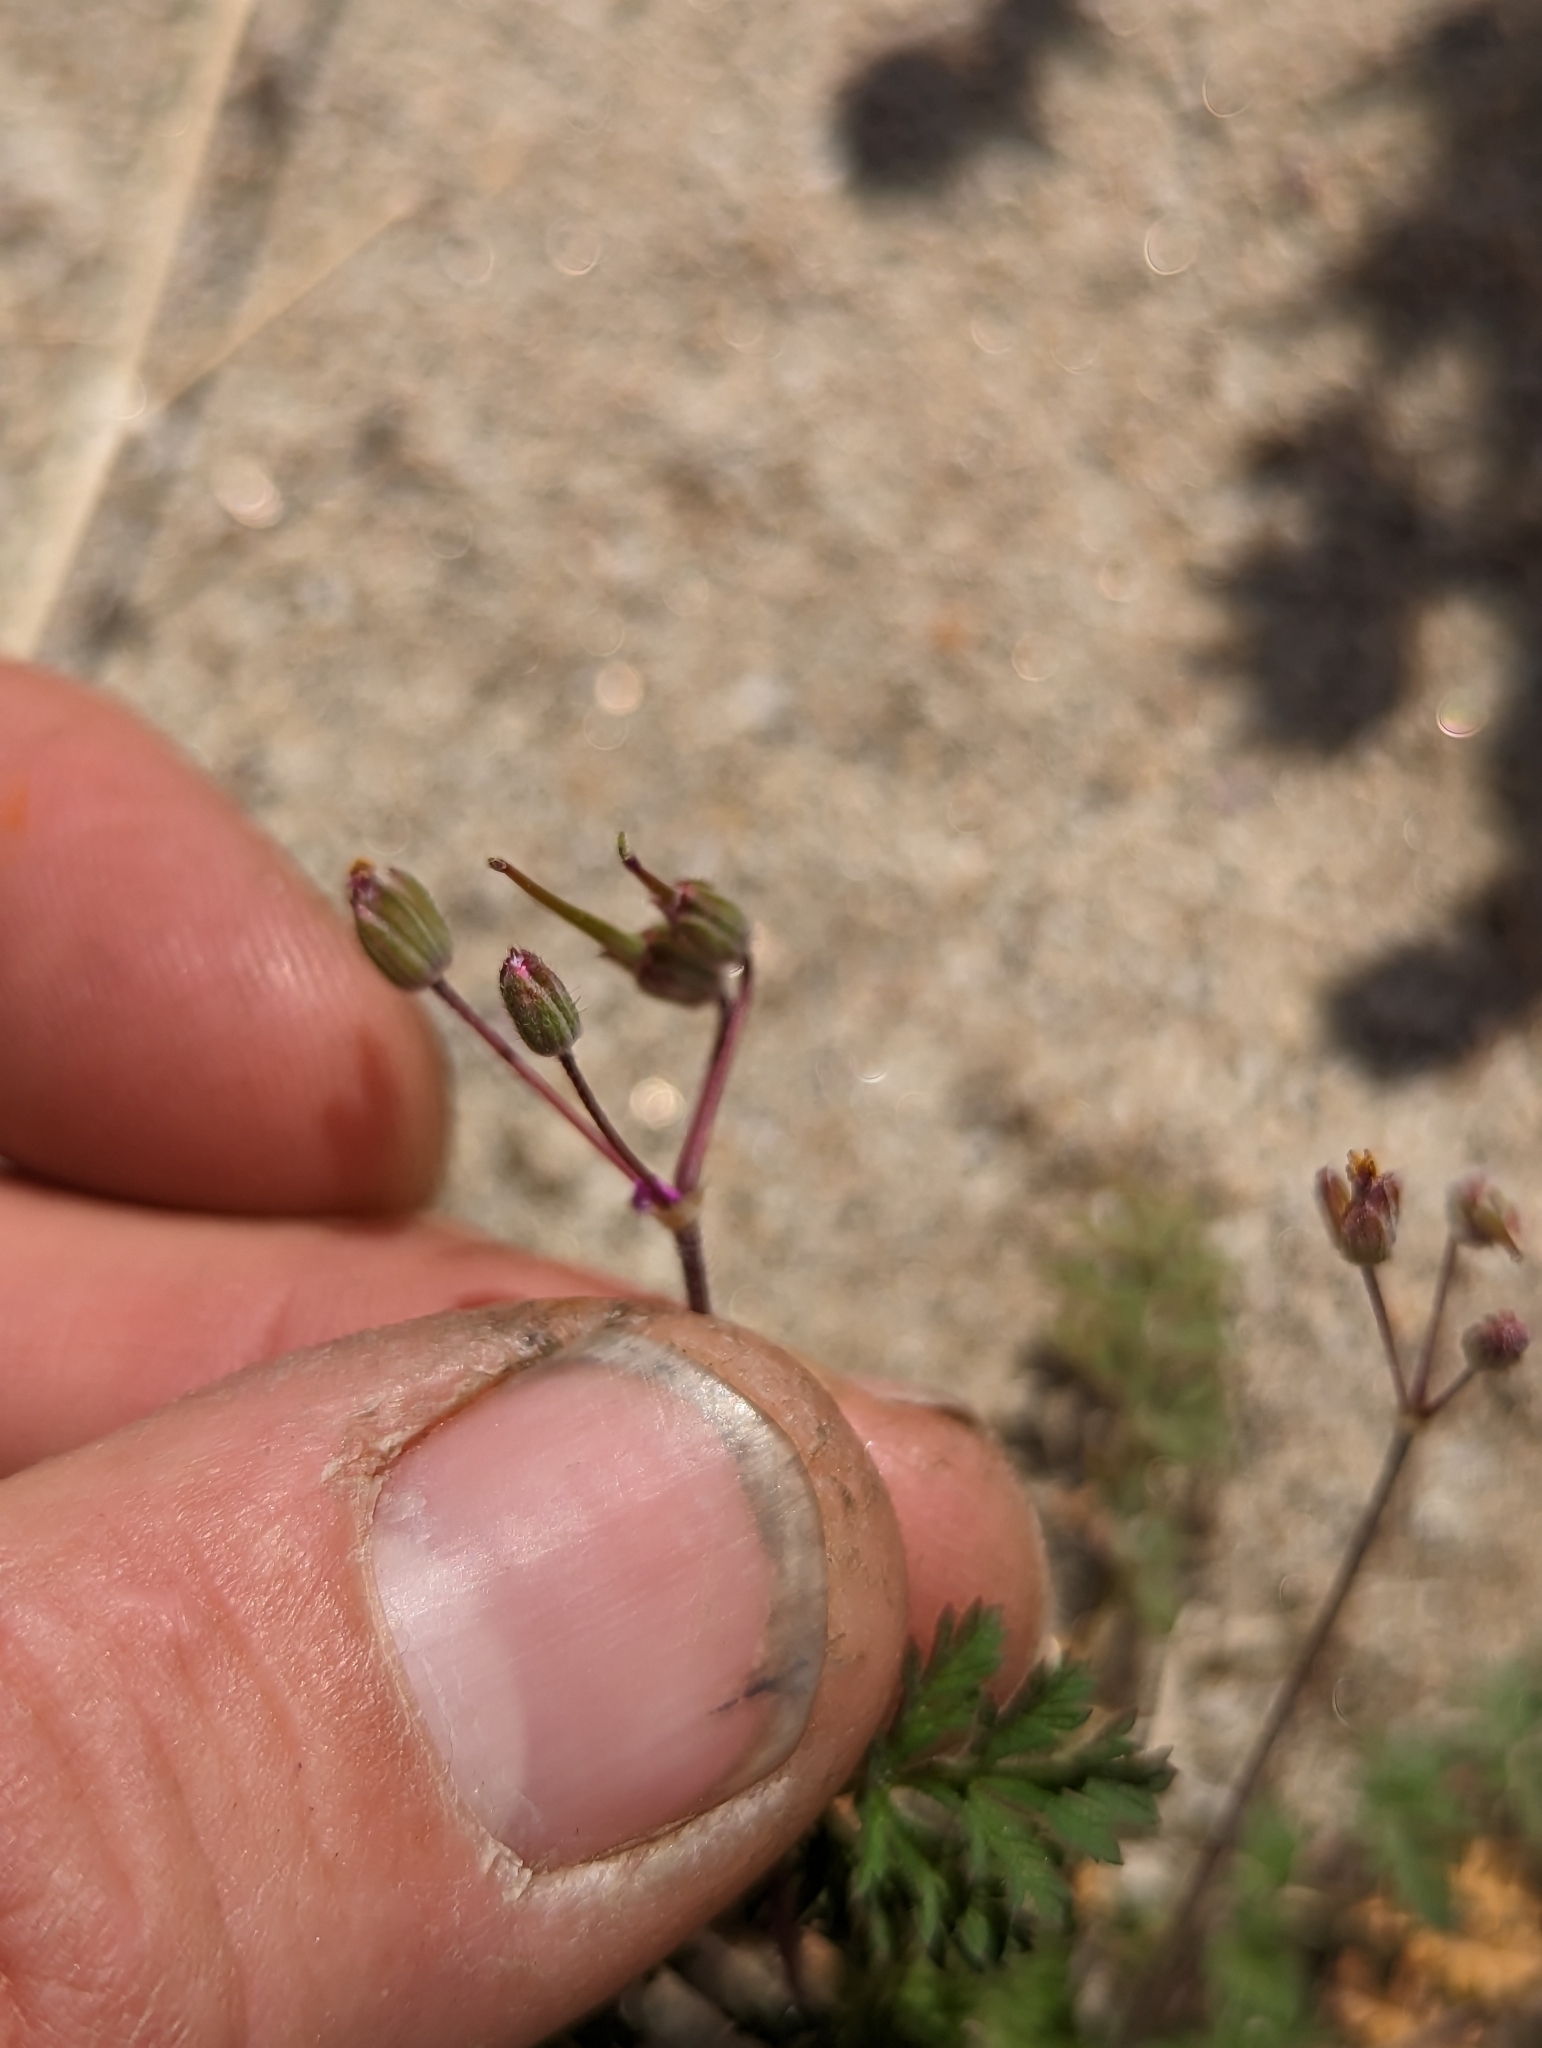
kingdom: Plantae
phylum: Tracheophyta
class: Magnoliopsida
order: Geraniales
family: Geraniaceae
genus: Erodium
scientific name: Erodium cicutarium
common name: Common stork's-bill
